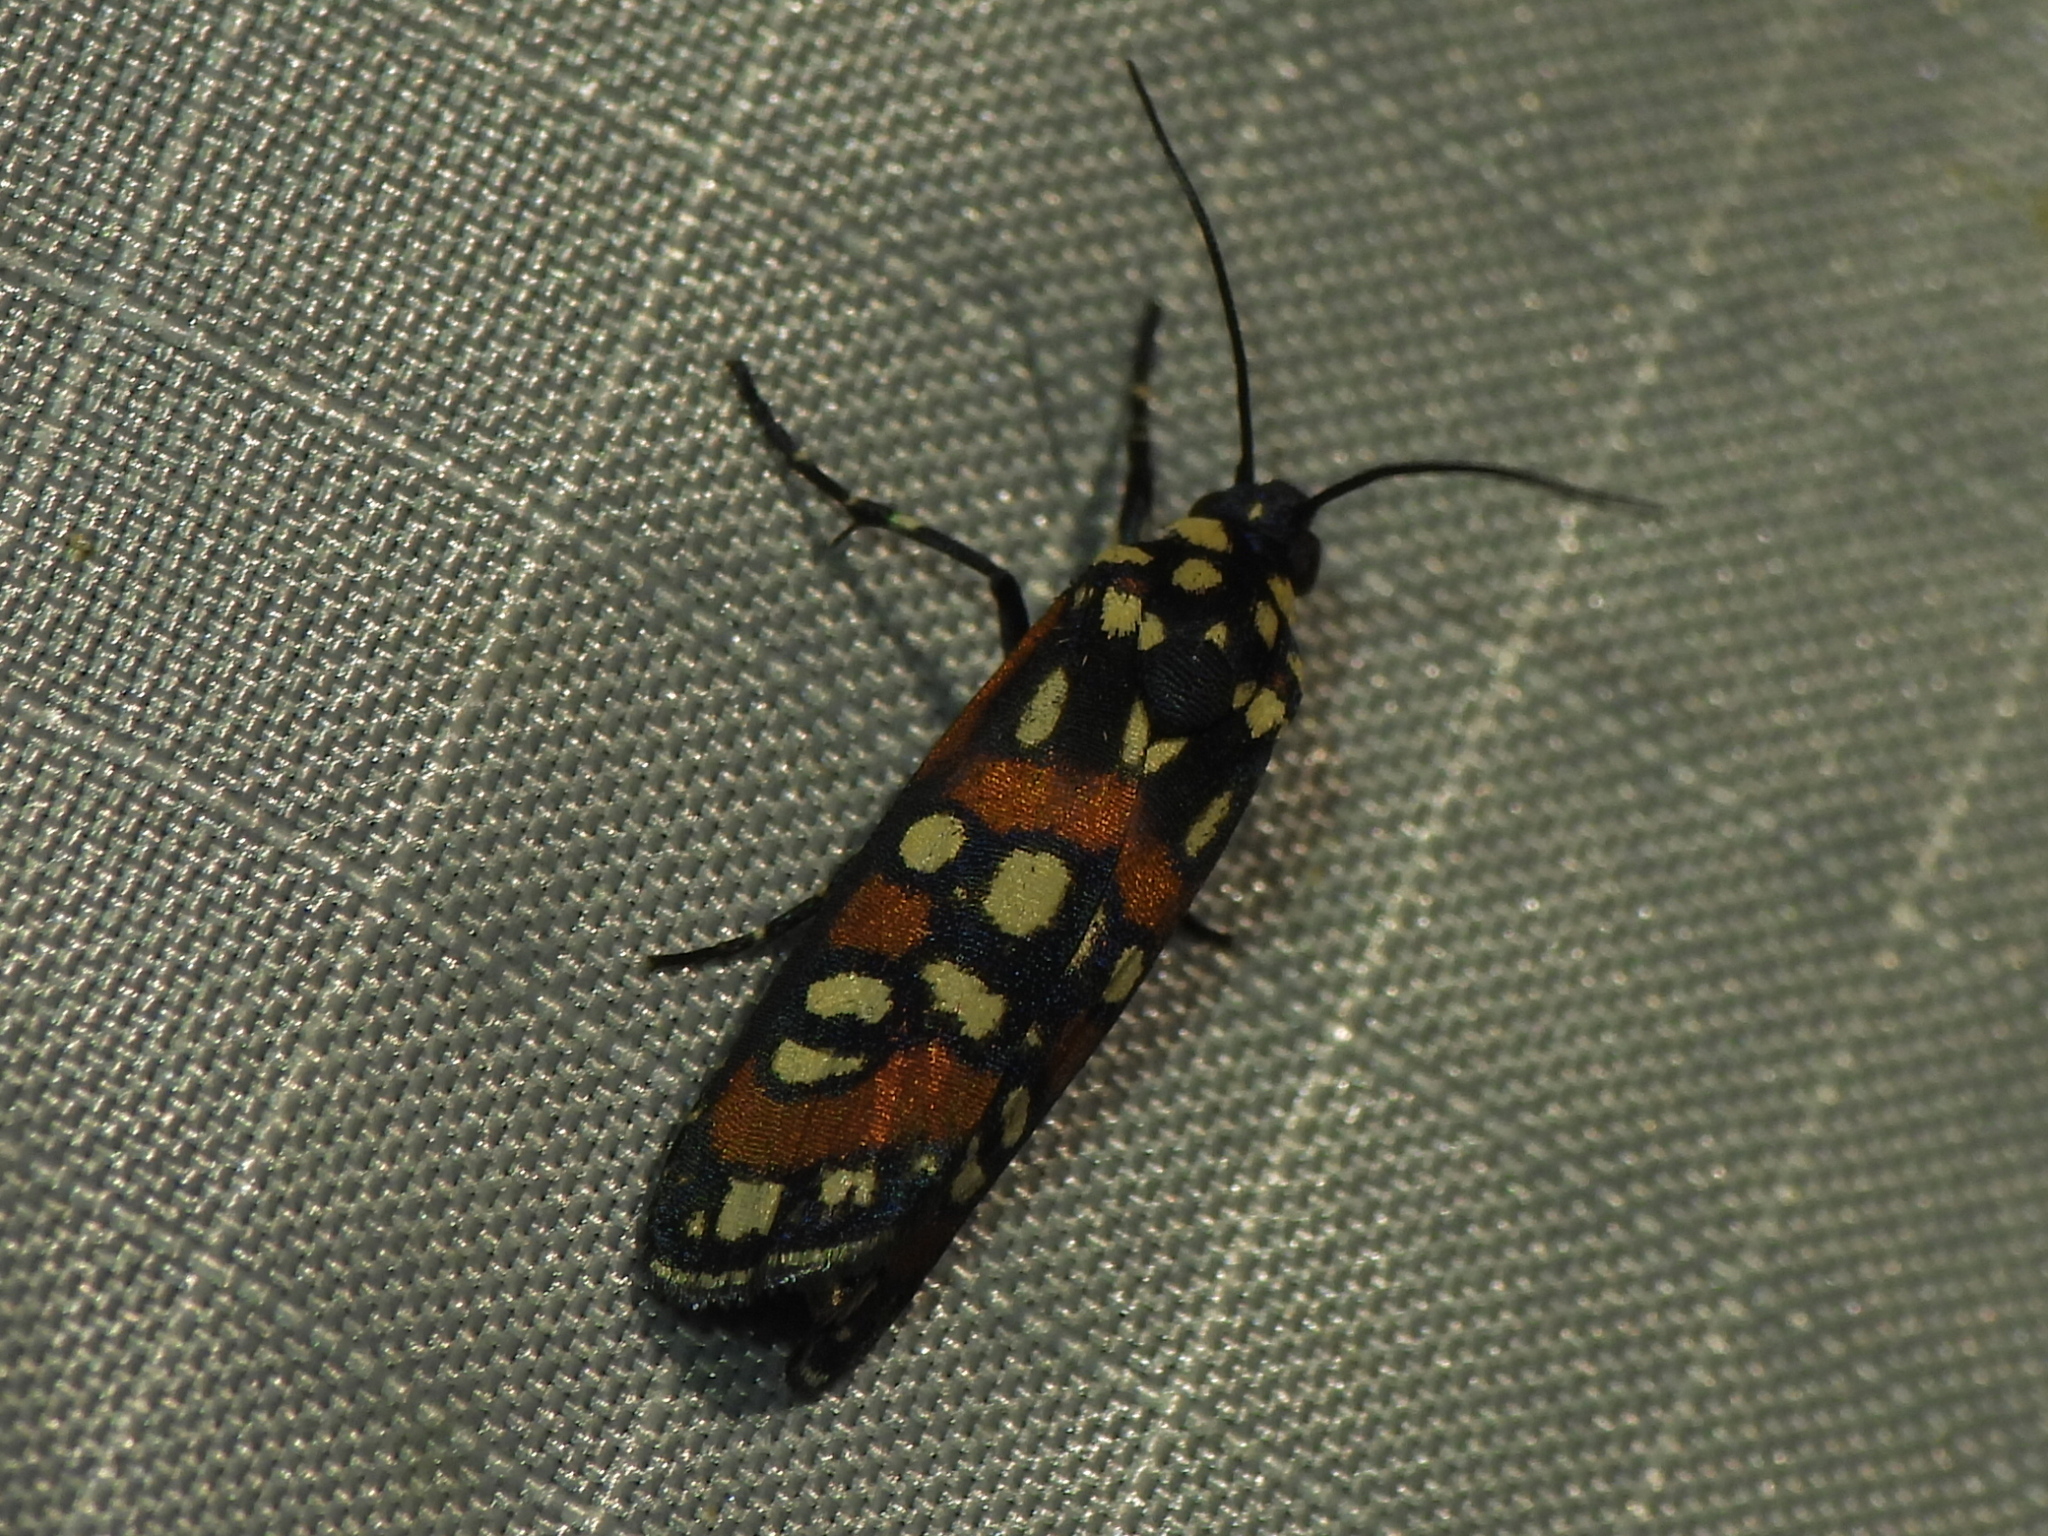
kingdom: Animalia
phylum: Arthropoda
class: Insecta
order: Lepidoptera
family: Noctuidae
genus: Cydosia
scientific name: Cydosia aurivitta
